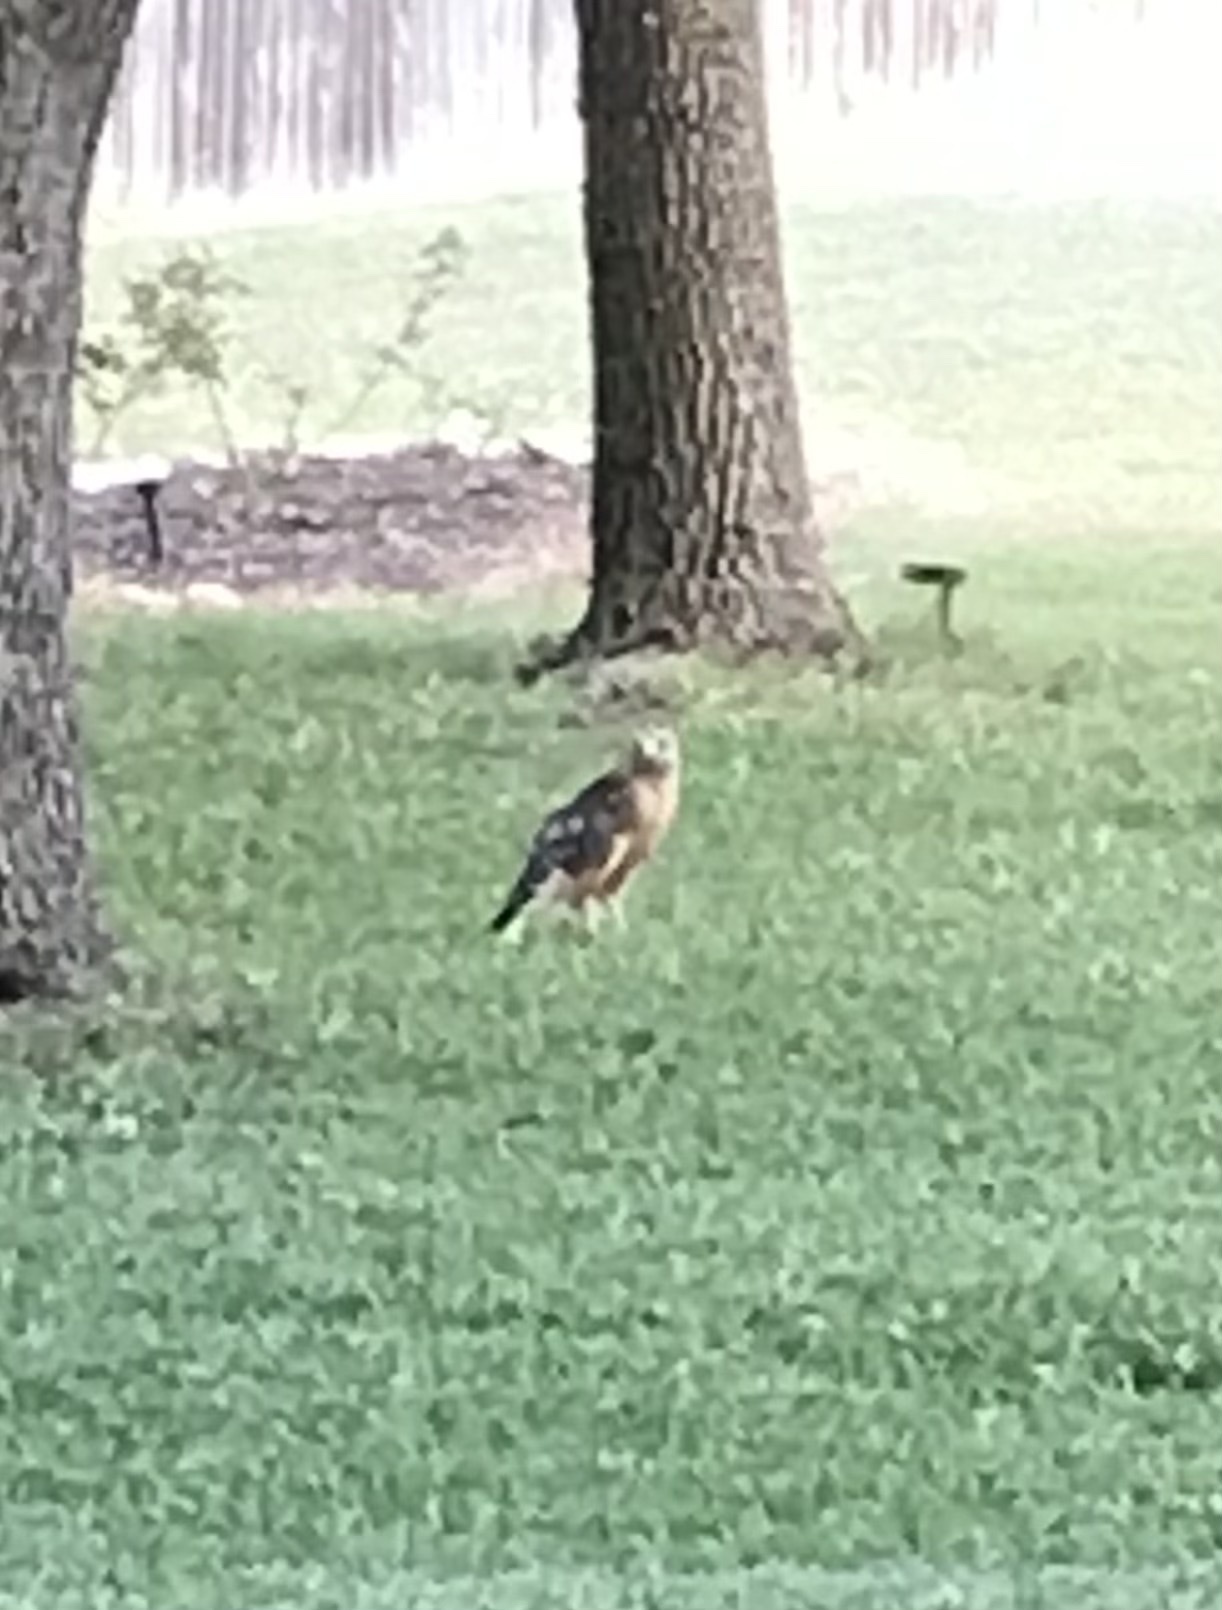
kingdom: Animalia
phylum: Chordata
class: Aves
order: Accipitriformes
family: Accipitridae
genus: Buteo
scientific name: Buteo lineatus
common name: Red-shouldered hawk
